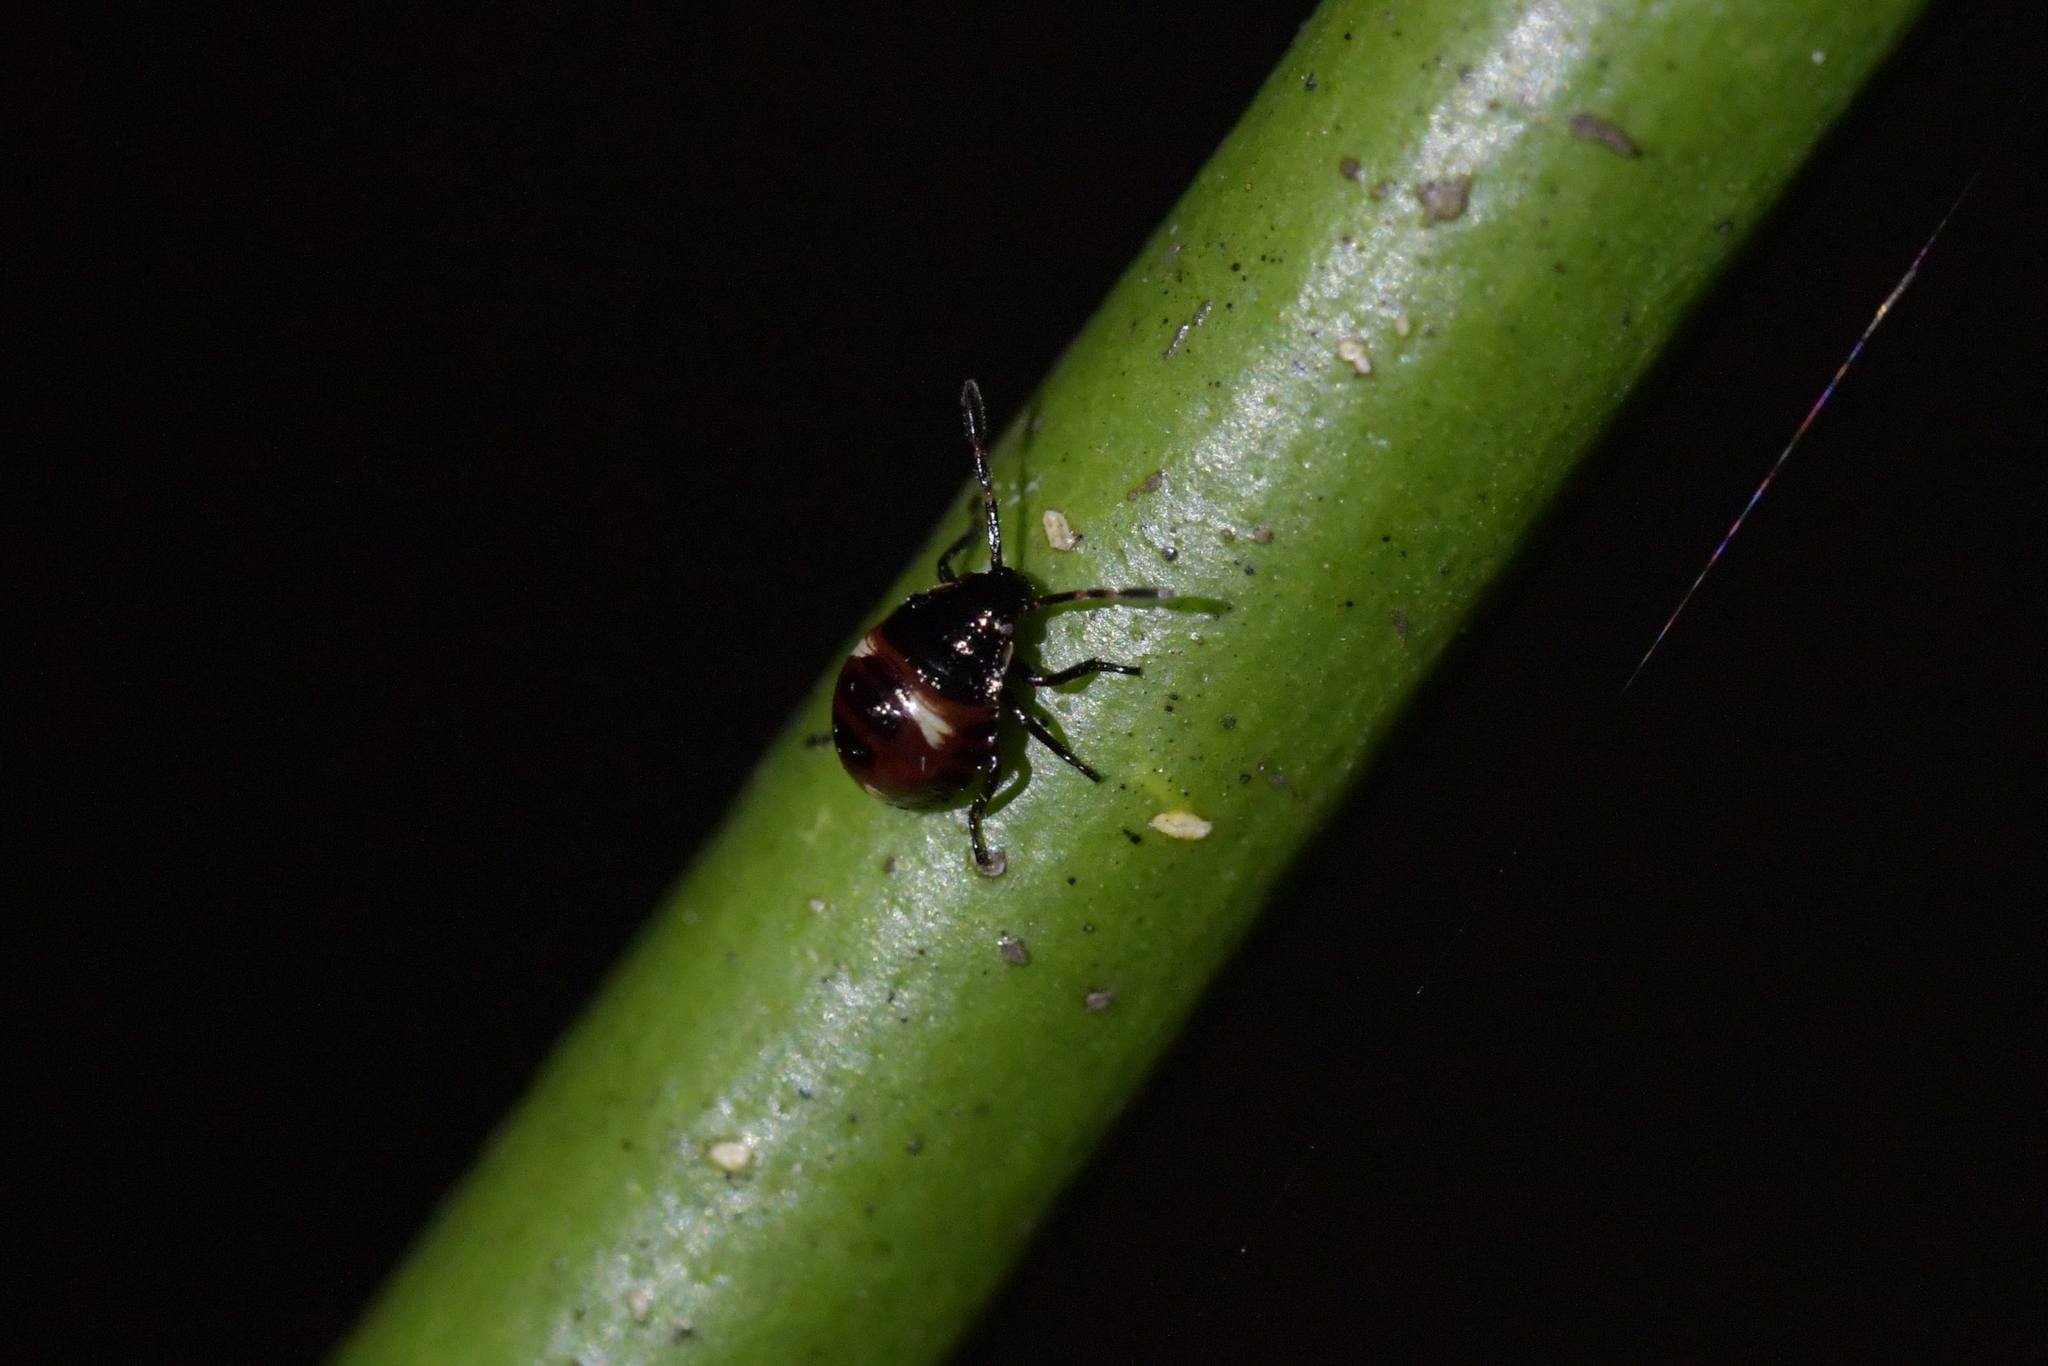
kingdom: Animalia
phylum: Arthropoda
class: Insecta
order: Hemiptera
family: Pentatomidae
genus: Cermatulus
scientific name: Cermatulus nasalis
